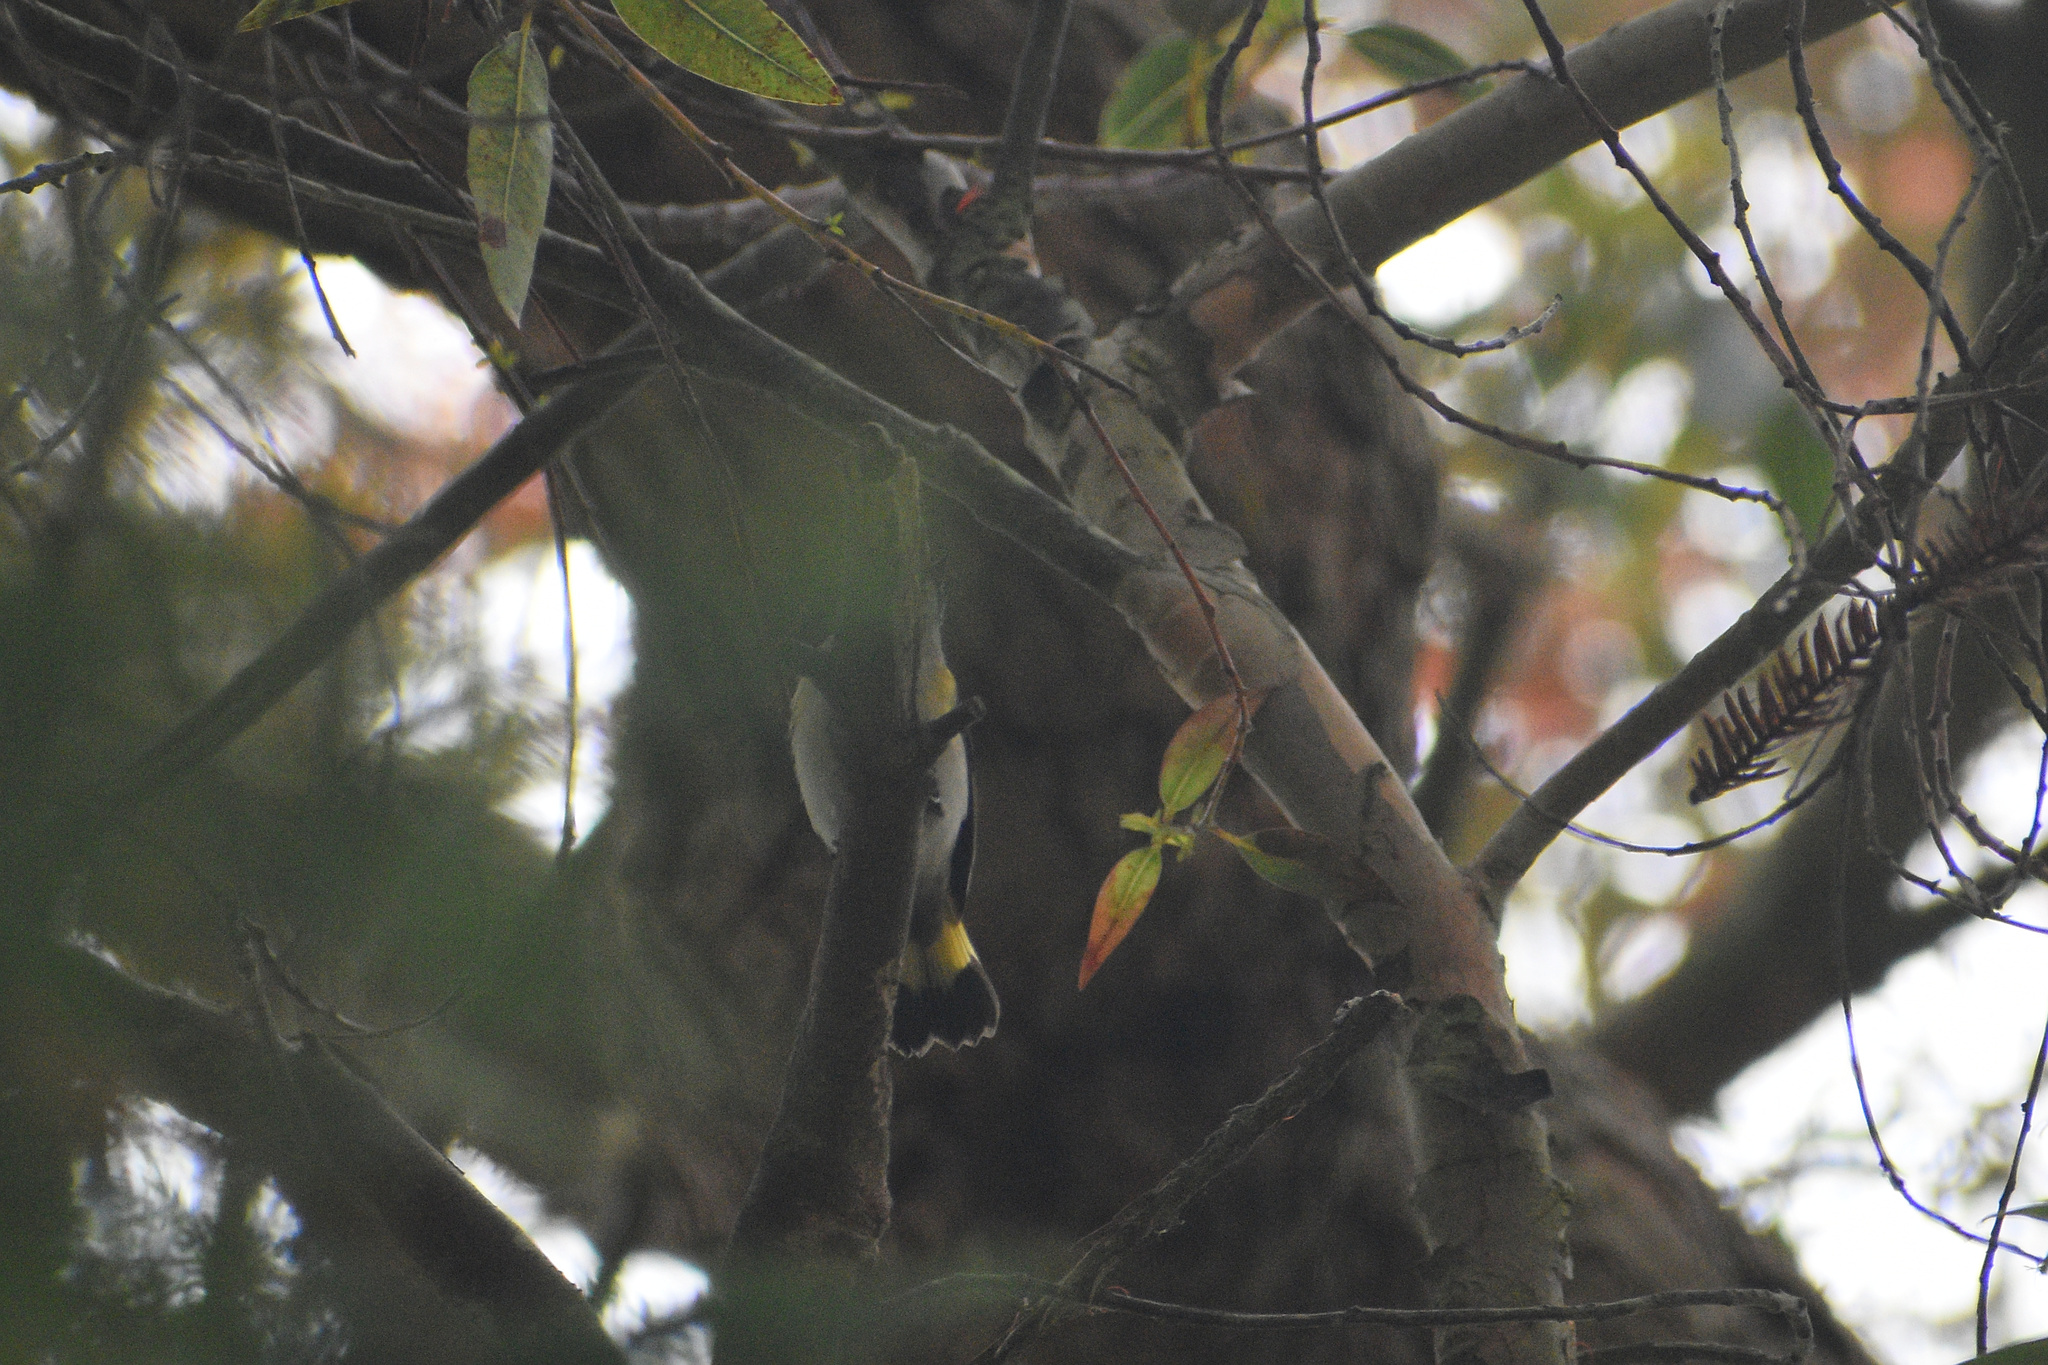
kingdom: Animalia
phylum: Chordata
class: Aves
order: Passeriformes
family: Parulidae
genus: Setophaga
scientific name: Setophaga ruticilla
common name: American redstart
